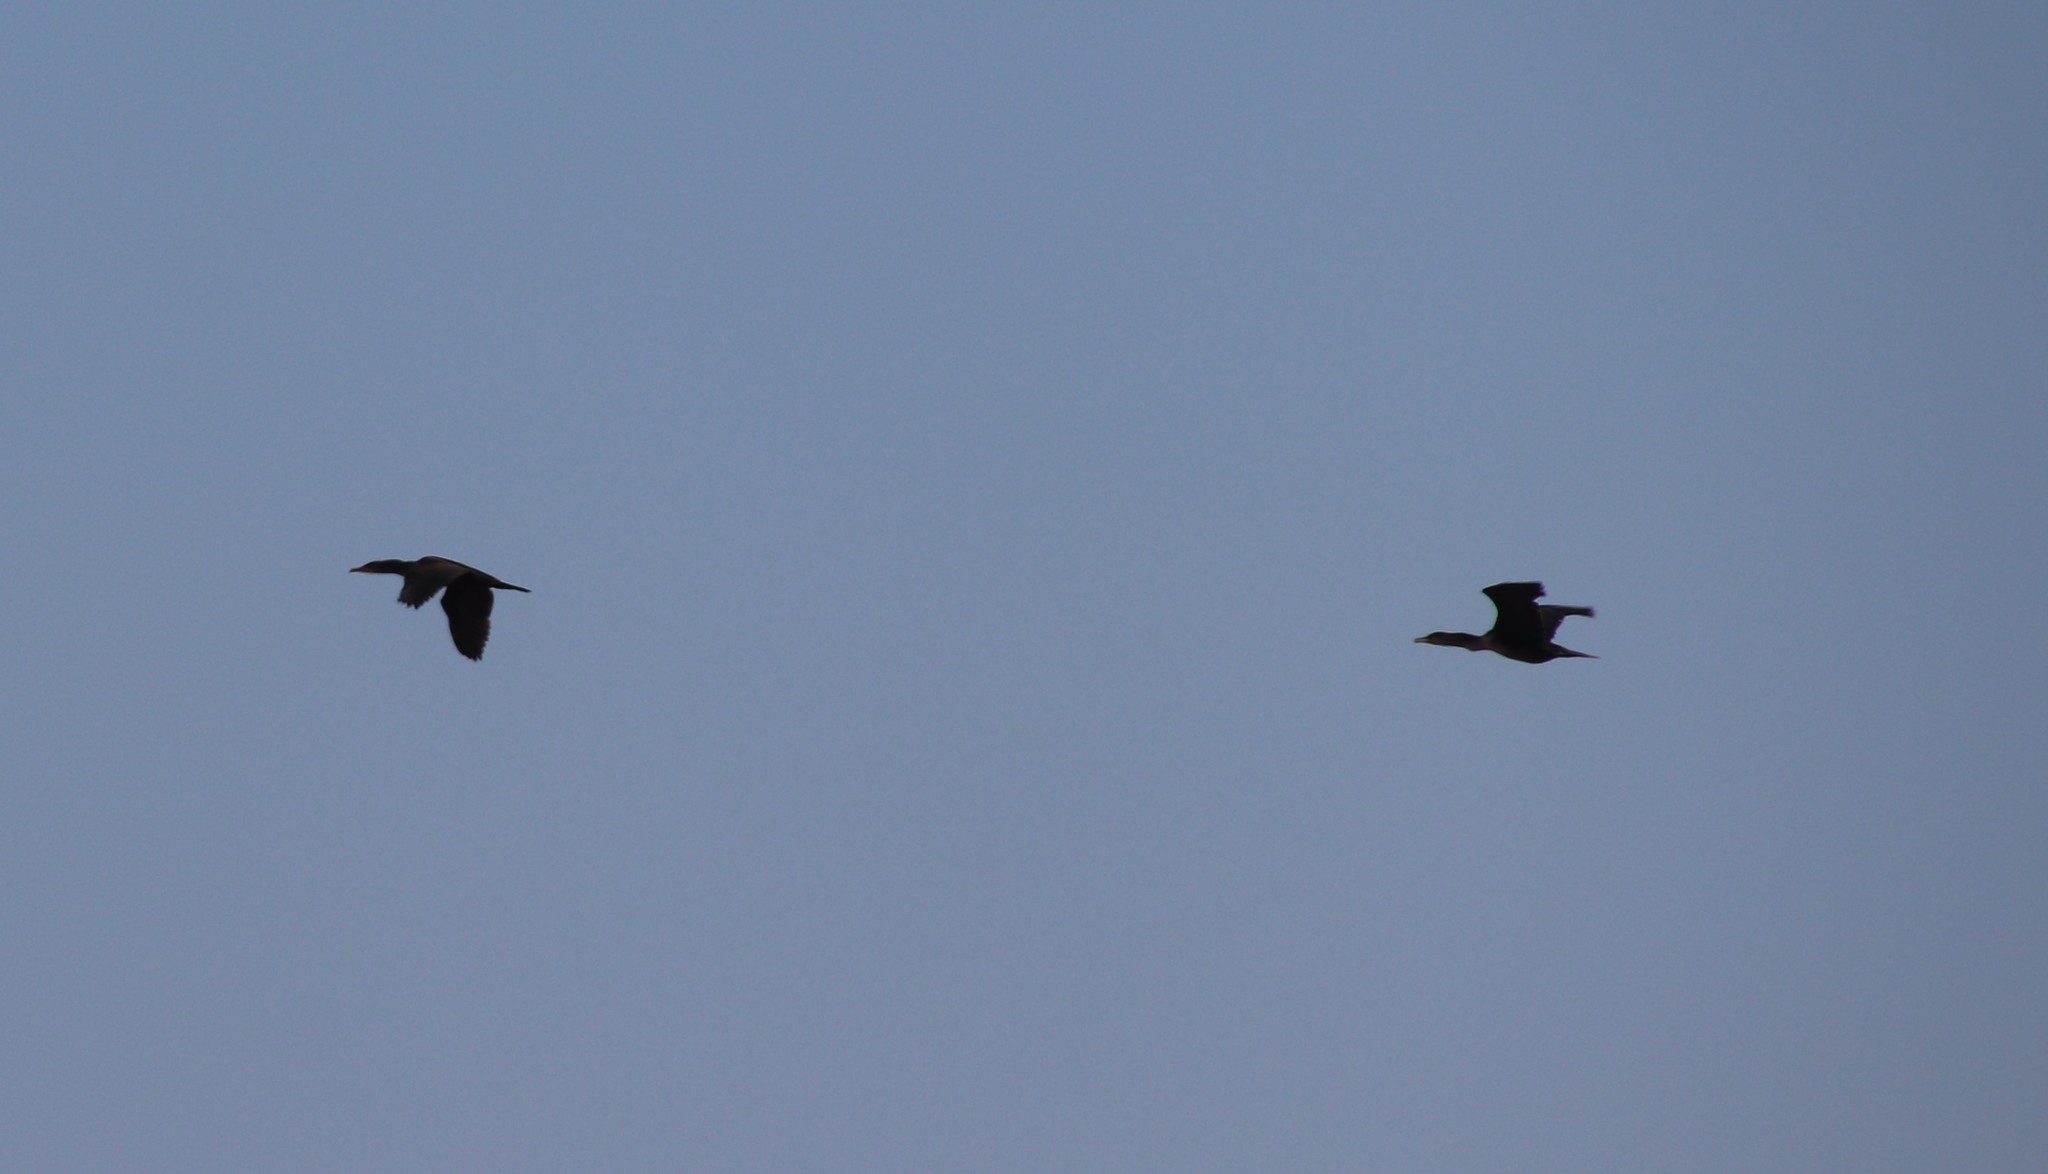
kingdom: Animalia
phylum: Chordata
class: Aves
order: Suliformes
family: Phalacrocoracidae
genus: Phalacrocorax
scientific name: Phalacrocorax auritus
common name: Double-crested cormorant
